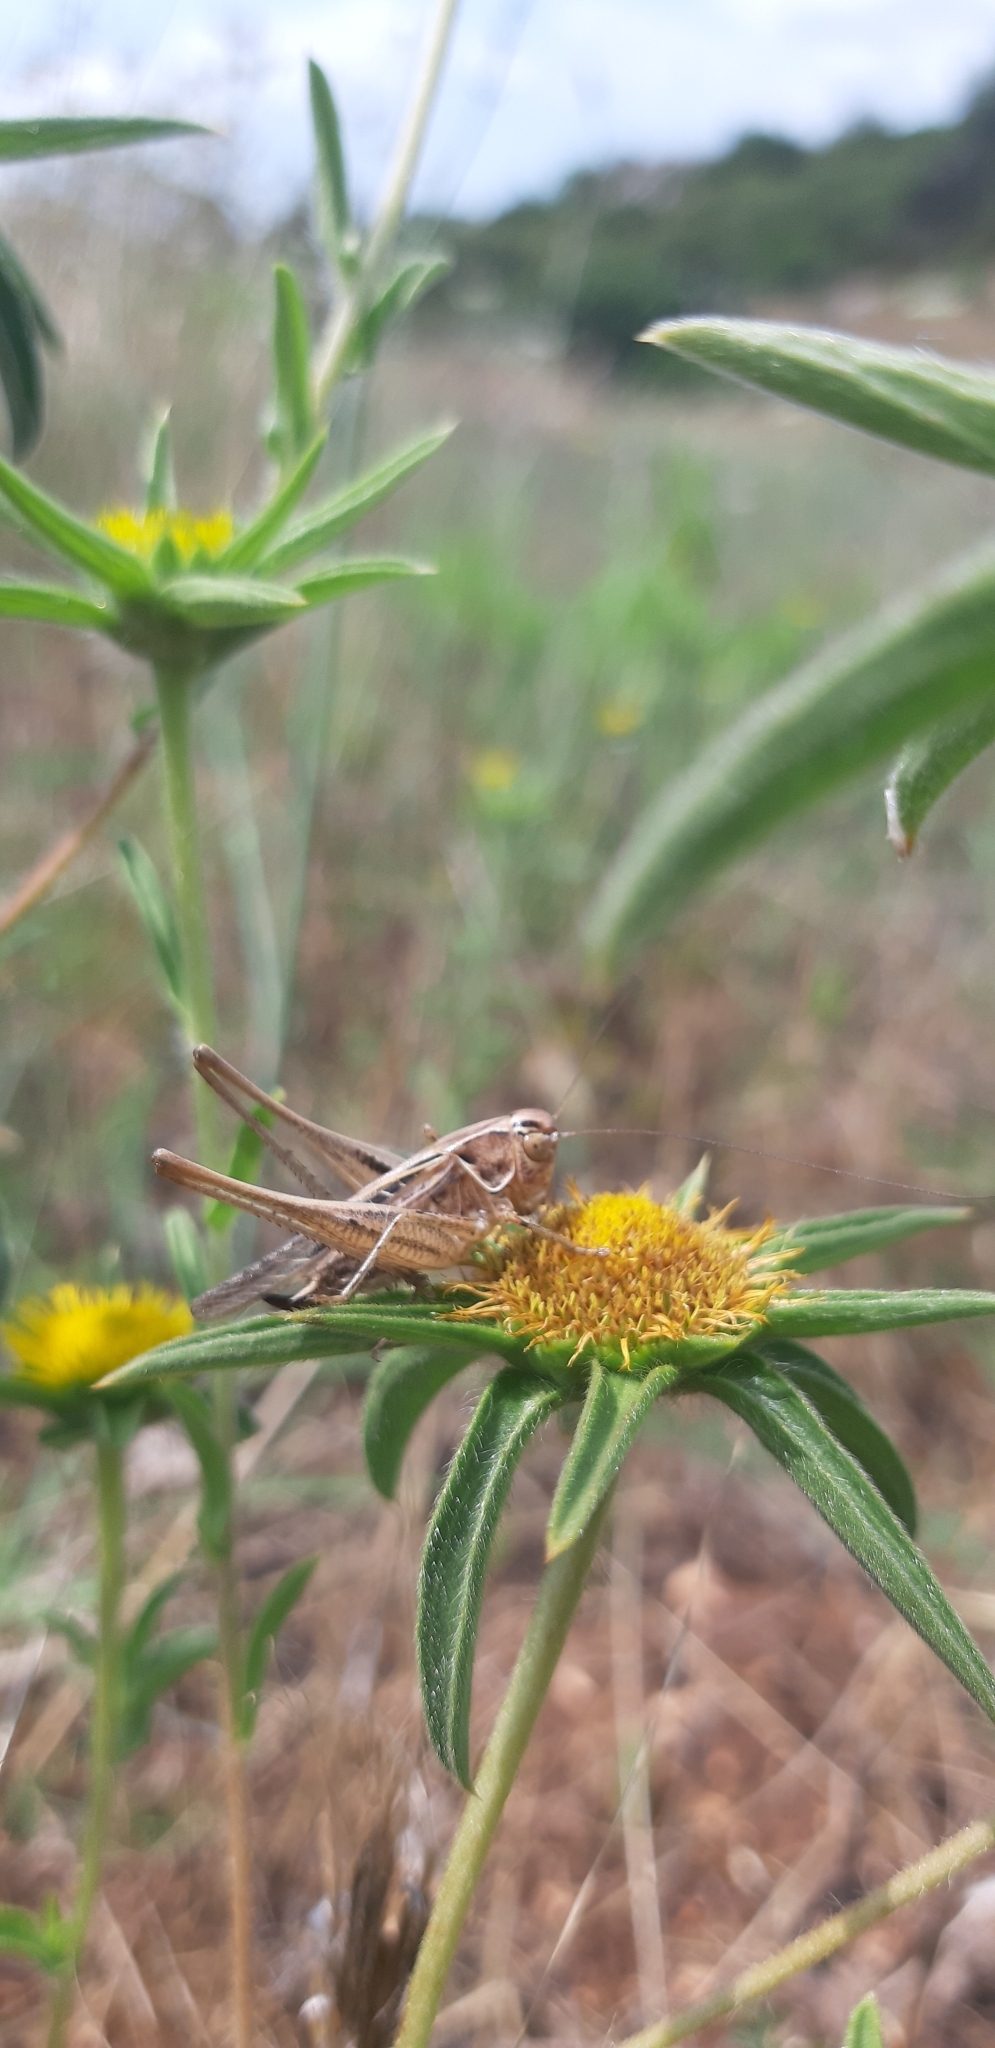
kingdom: Animalia
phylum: Arthropoda
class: Insecta
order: Orthoptera
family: Tettigoniidae
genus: Tessellana
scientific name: Tessellana tessellata
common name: Grasshopper
